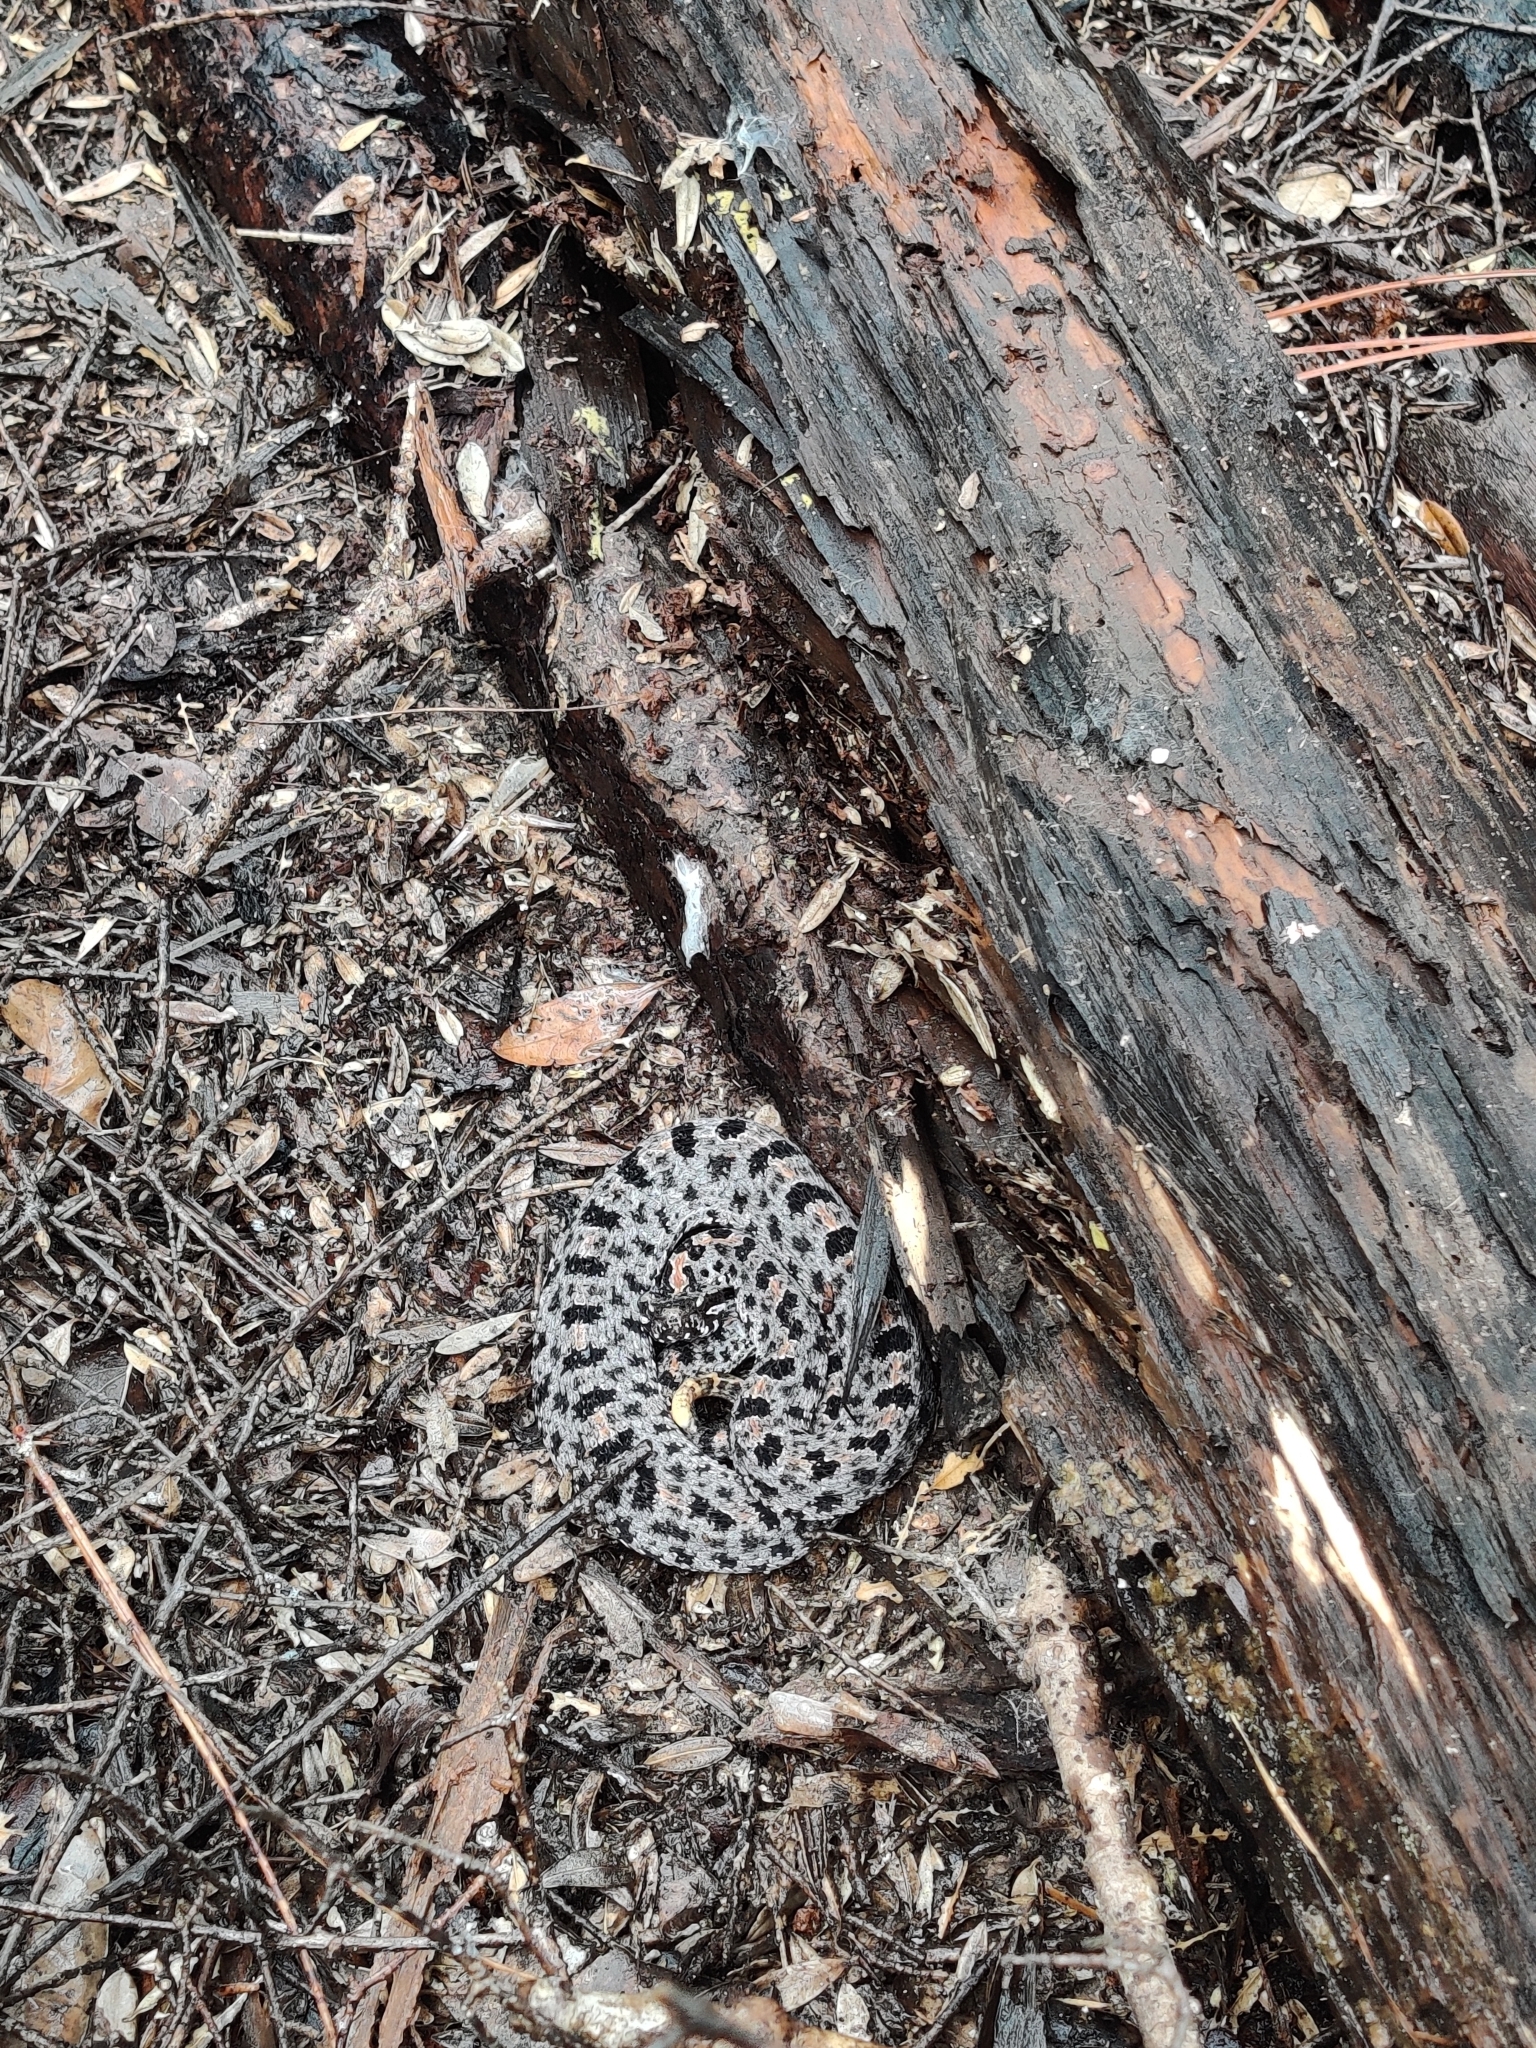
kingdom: Animalia
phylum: Chordata
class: Squamata
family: Viperidae
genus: Sistrurus
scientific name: Sistrurus miliarius
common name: Pygmy rattlesnake
